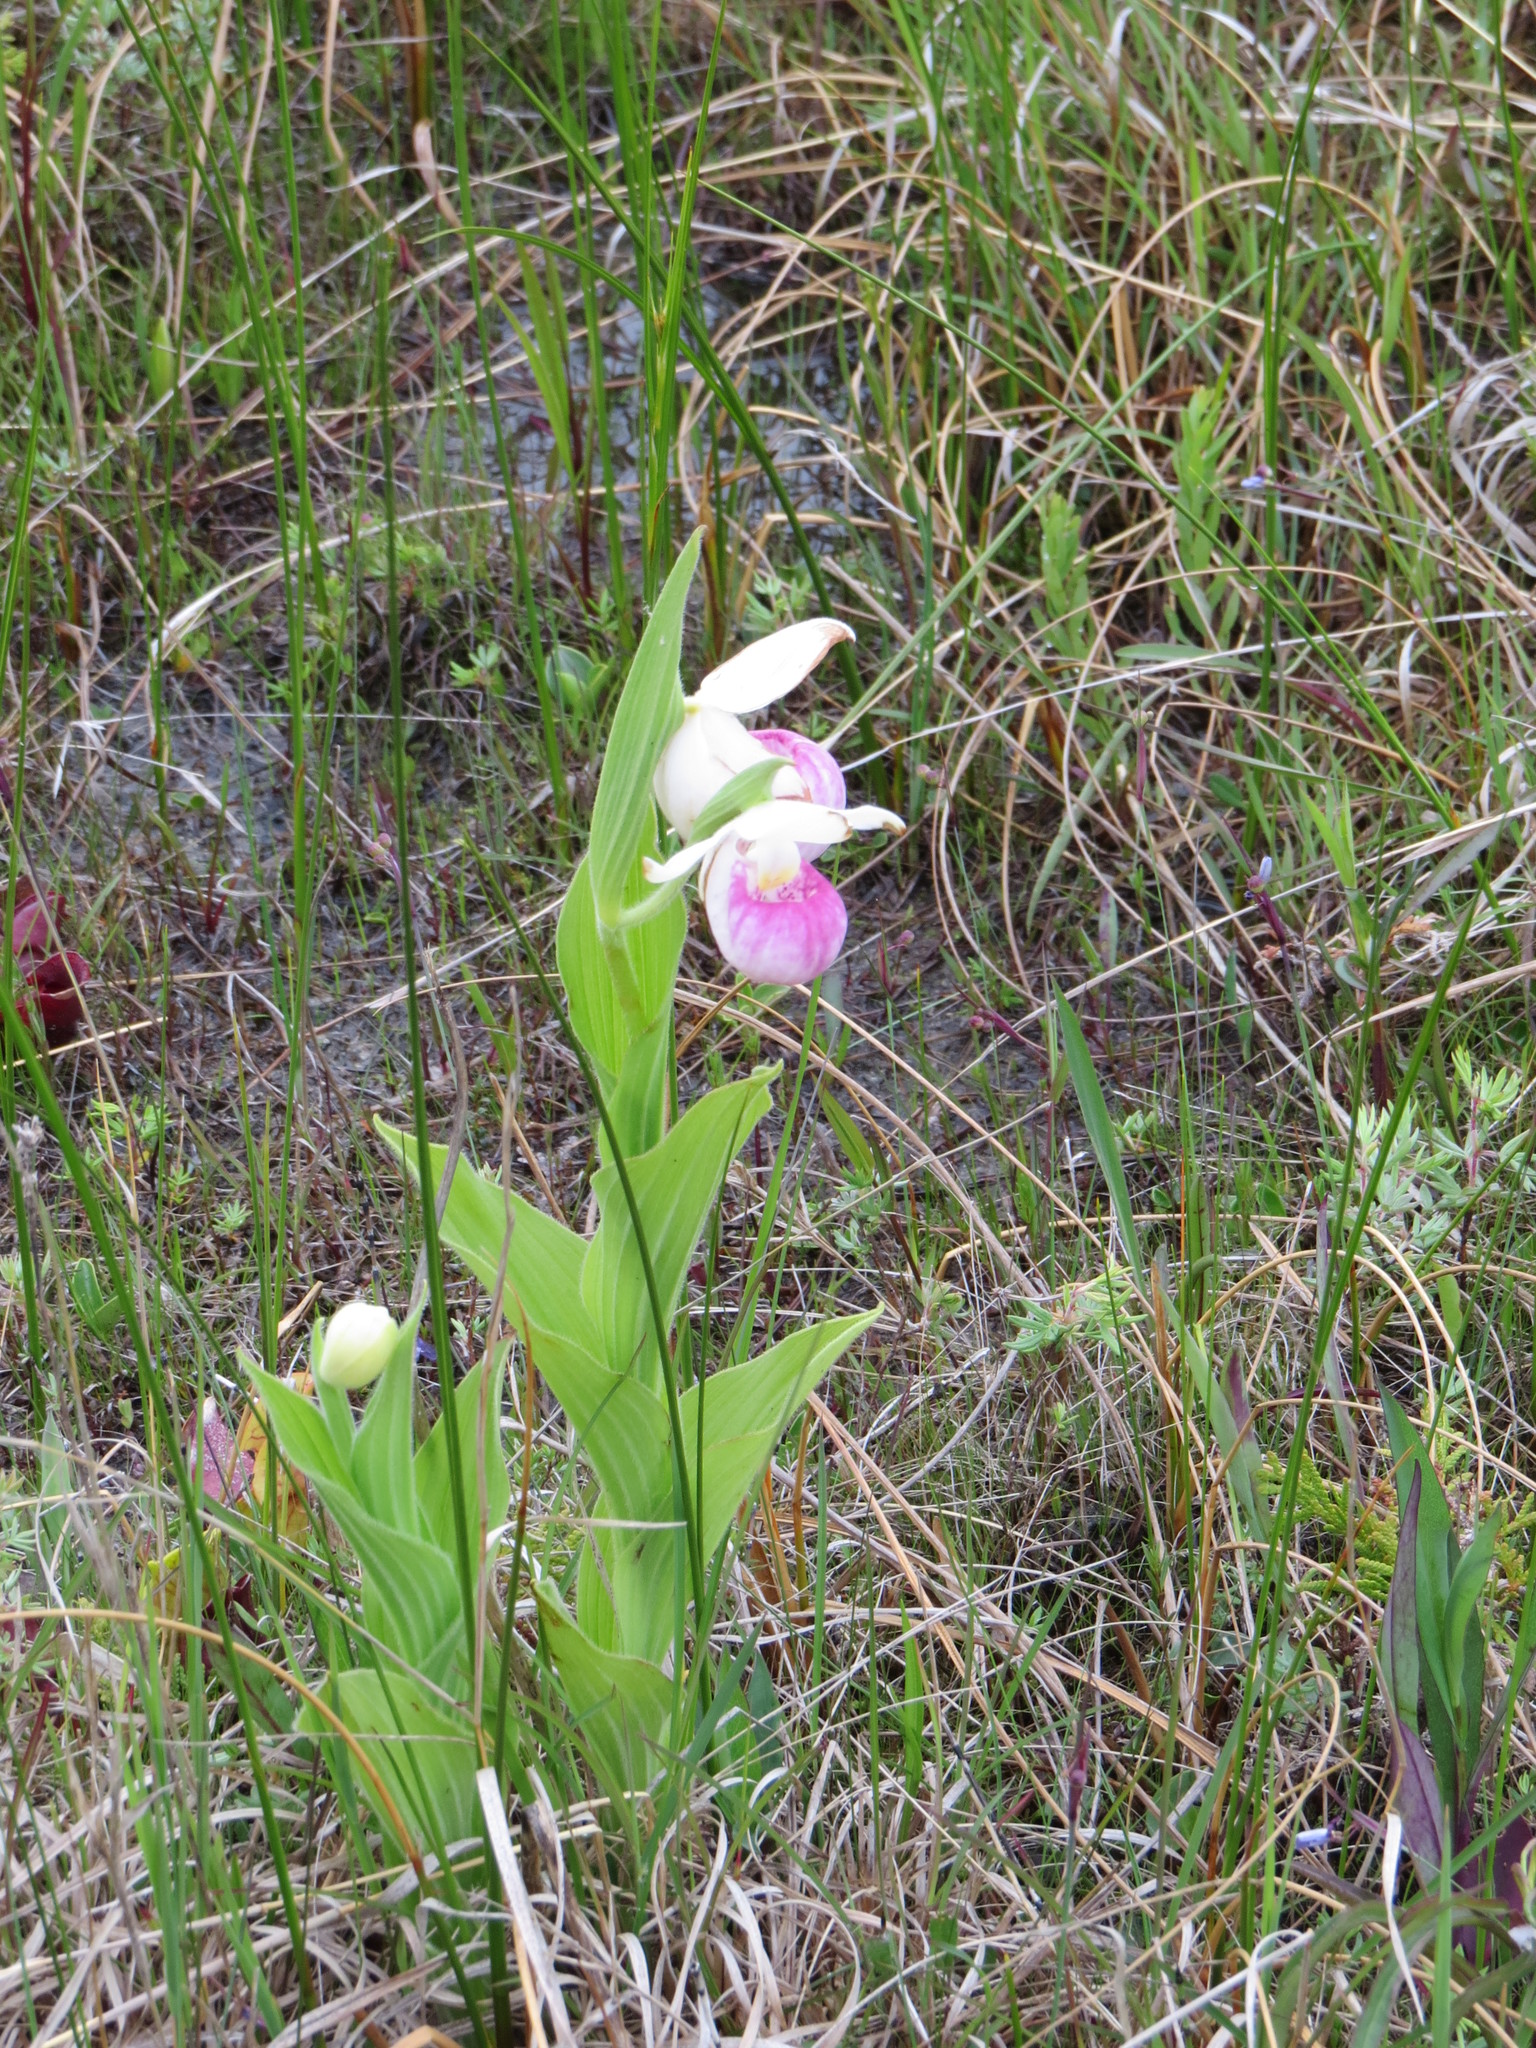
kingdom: Plantae
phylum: Tracheophyta
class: Liliopsida
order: Asparagales
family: Orchidaceae
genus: Cypripedium
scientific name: Cypripedium reginae
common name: Queen lady's-slipper
